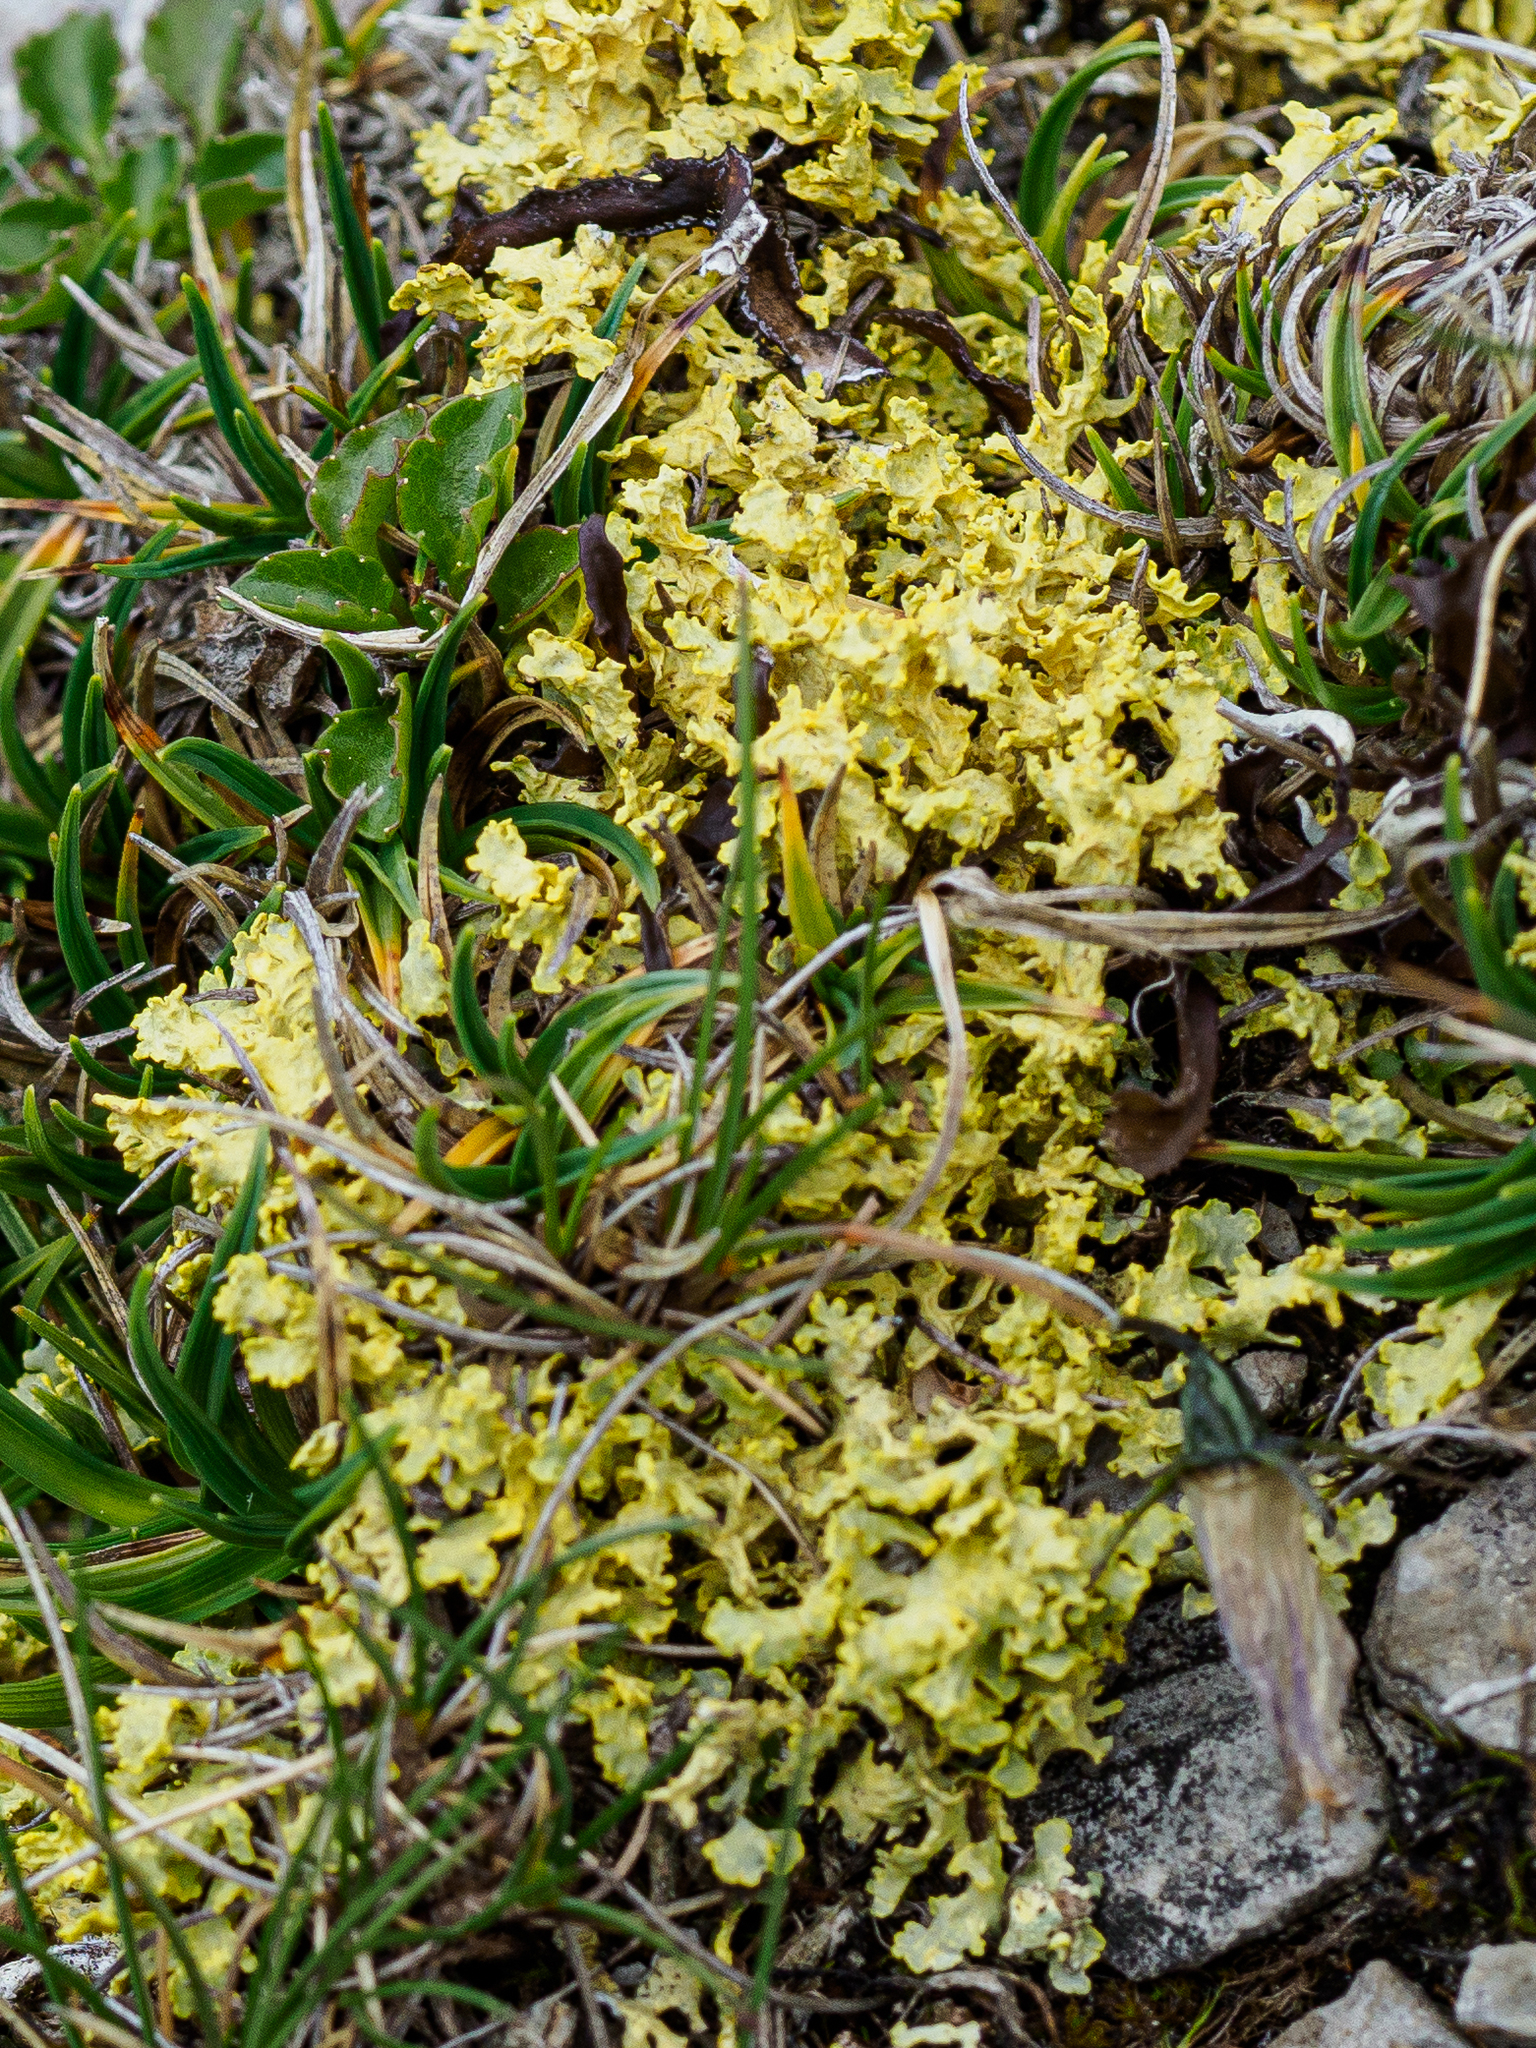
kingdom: Fungi
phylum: Ascomycota
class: Lecanoromycetes
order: Lecanorales
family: Parmeliaceae
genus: Vulpicida
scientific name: Vulpicida tubulosus
